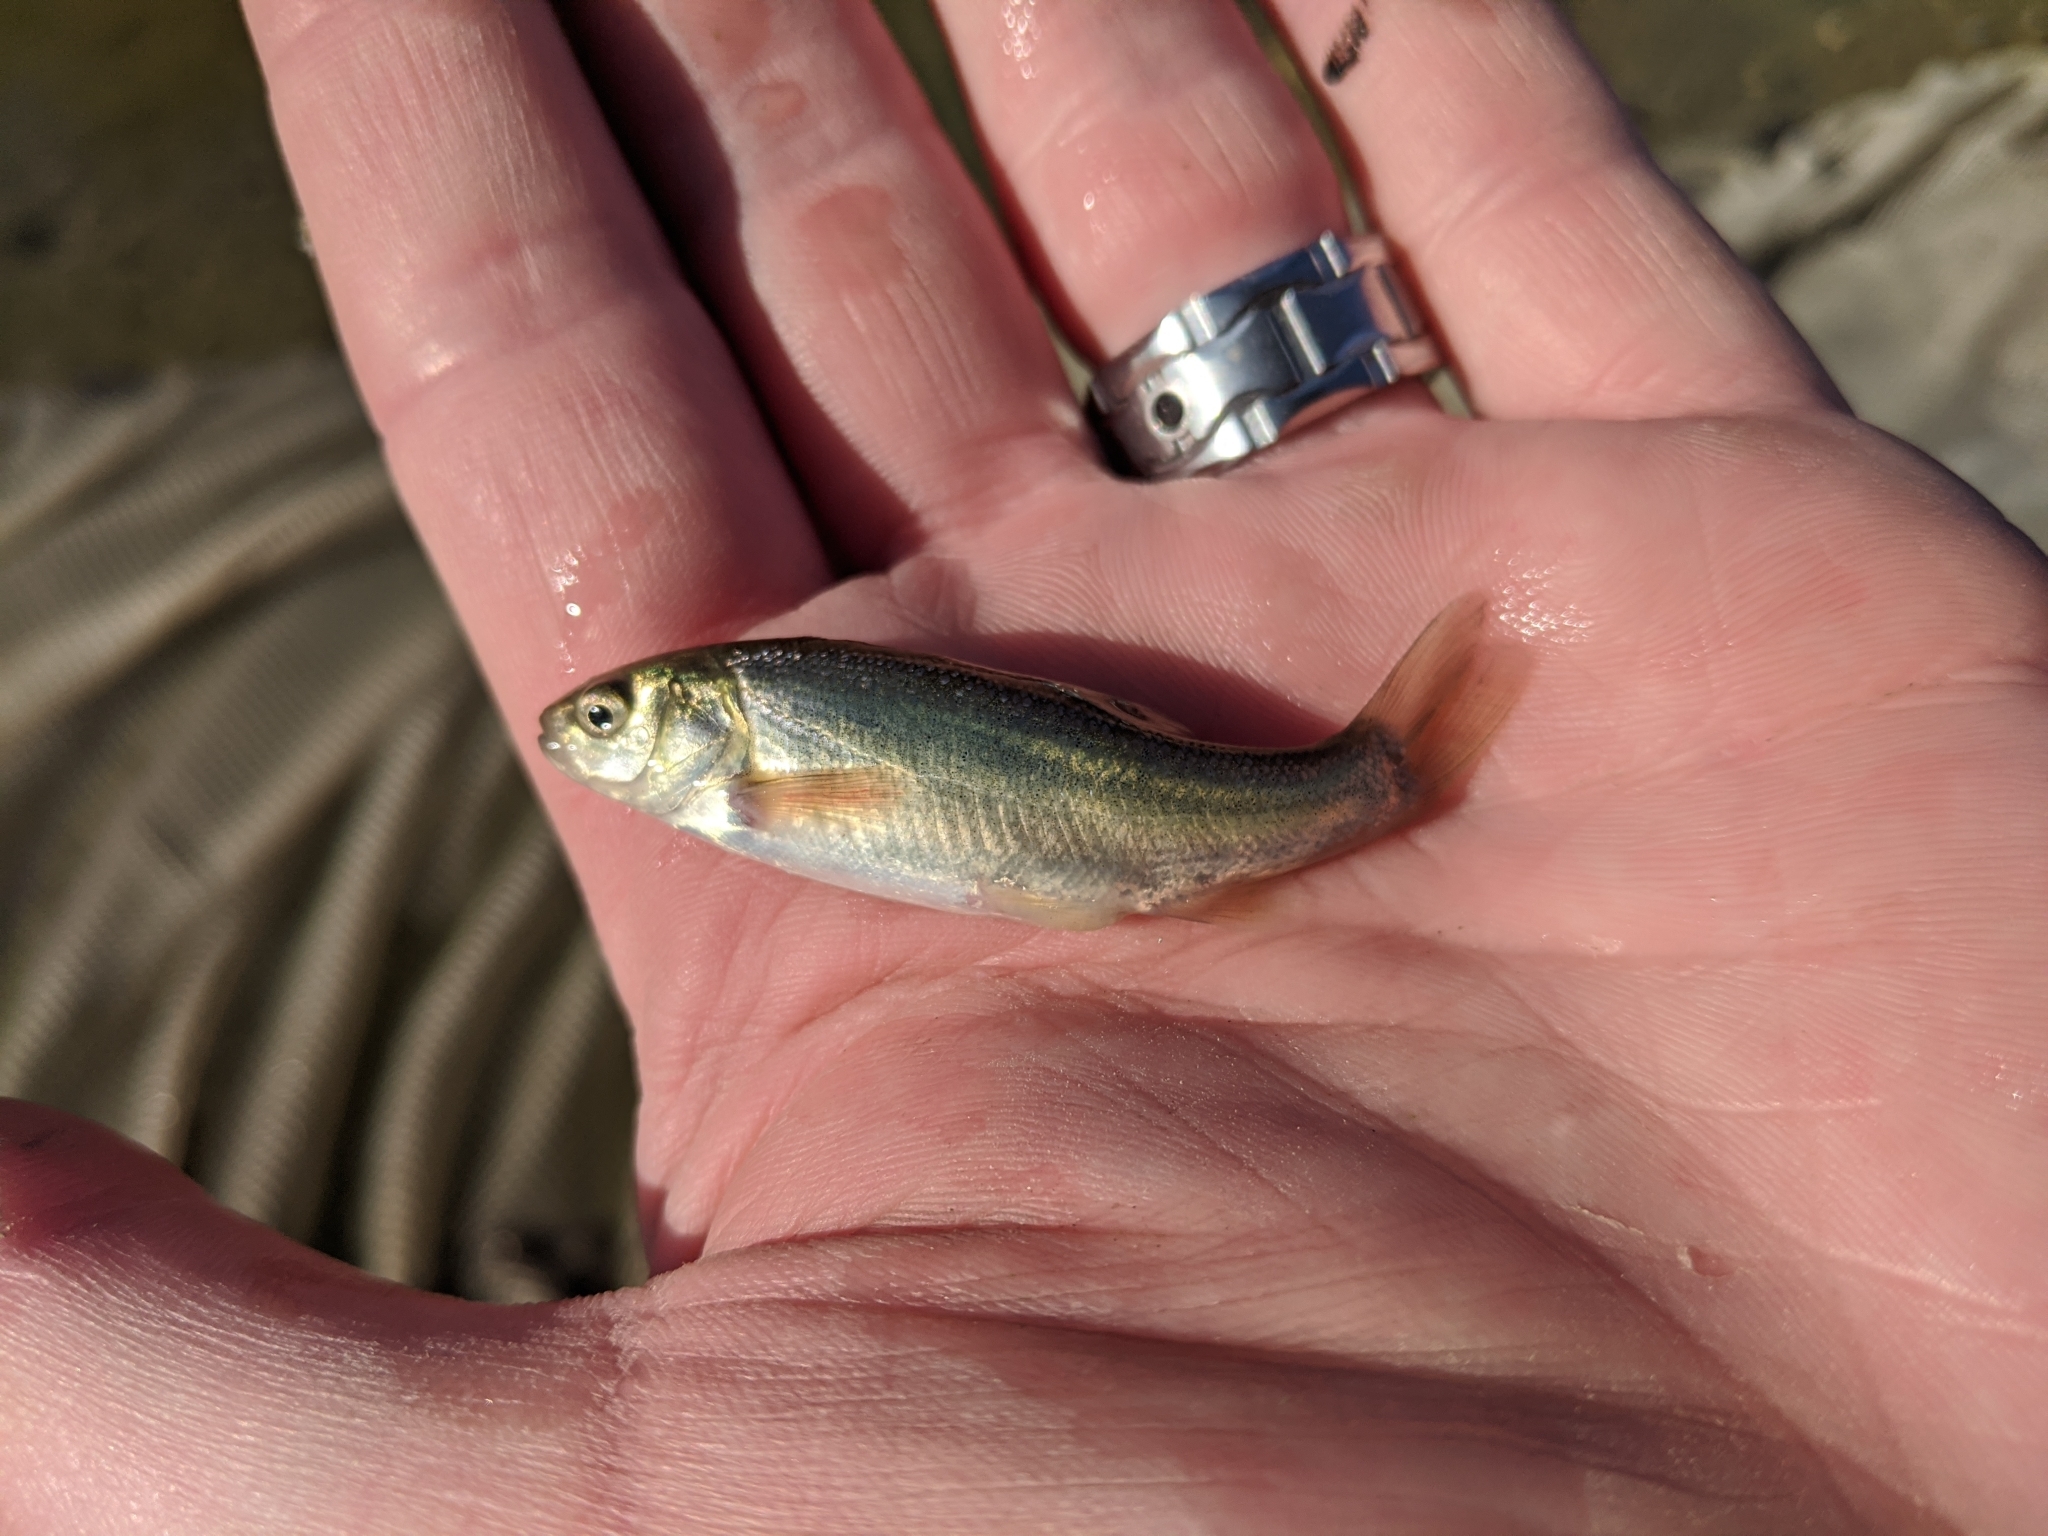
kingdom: Animalia
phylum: Chordata
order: Cypriniformes
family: Cyprinidae
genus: Gila
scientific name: Gila orcuttii
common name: Arroyo chub
